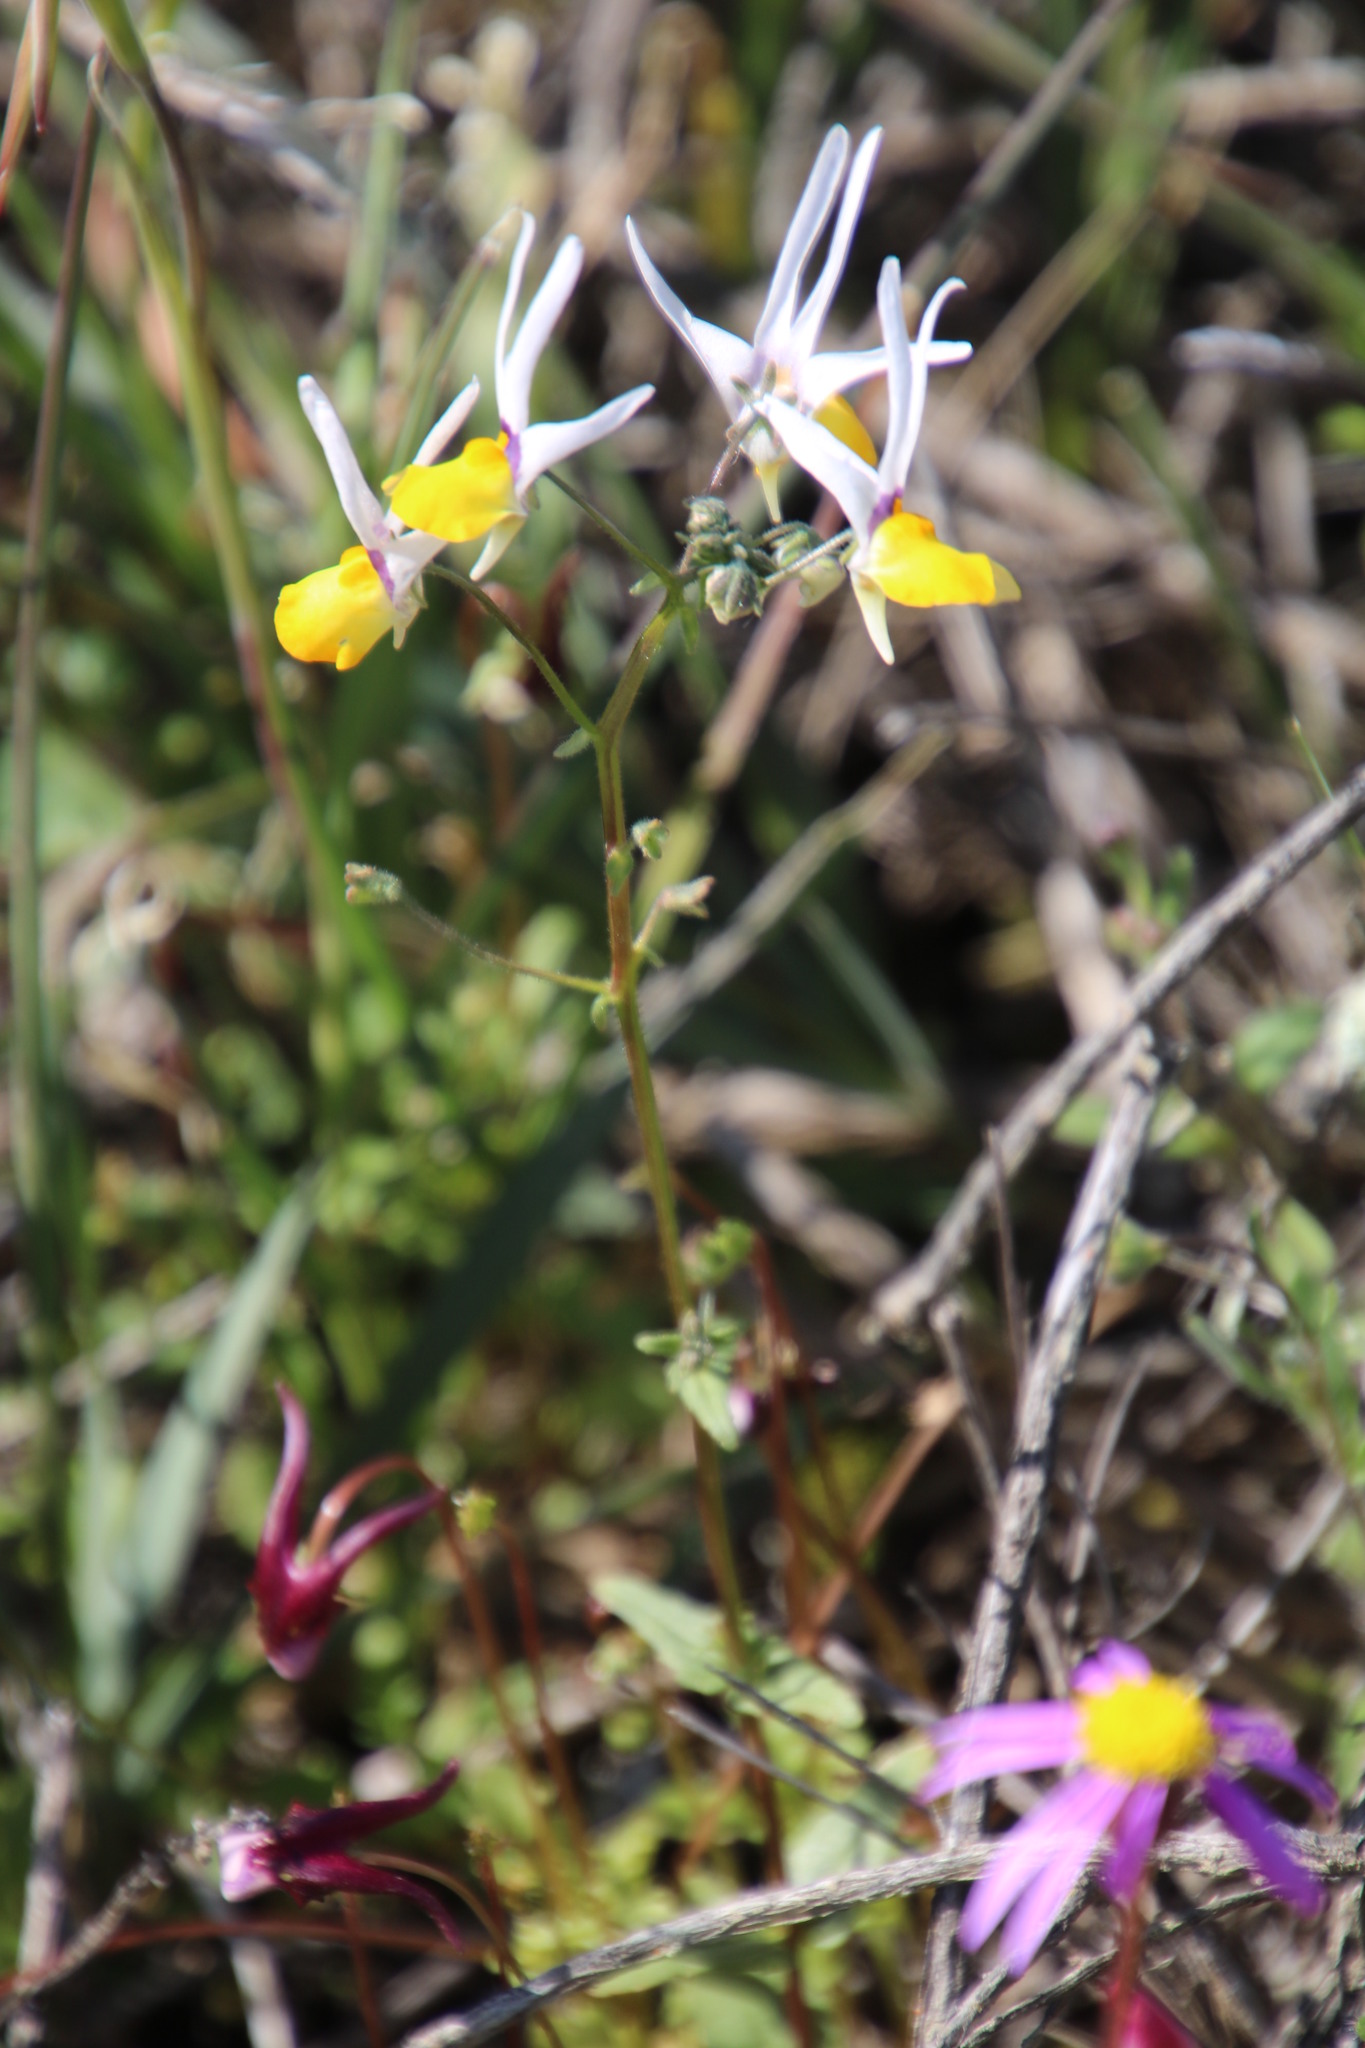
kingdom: Plantae
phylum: Tracheophyta
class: Magnoliopsida
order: Lamiales
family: Scrophulariaceae
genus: Nemesia
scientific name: Nemesia cheiranthus
